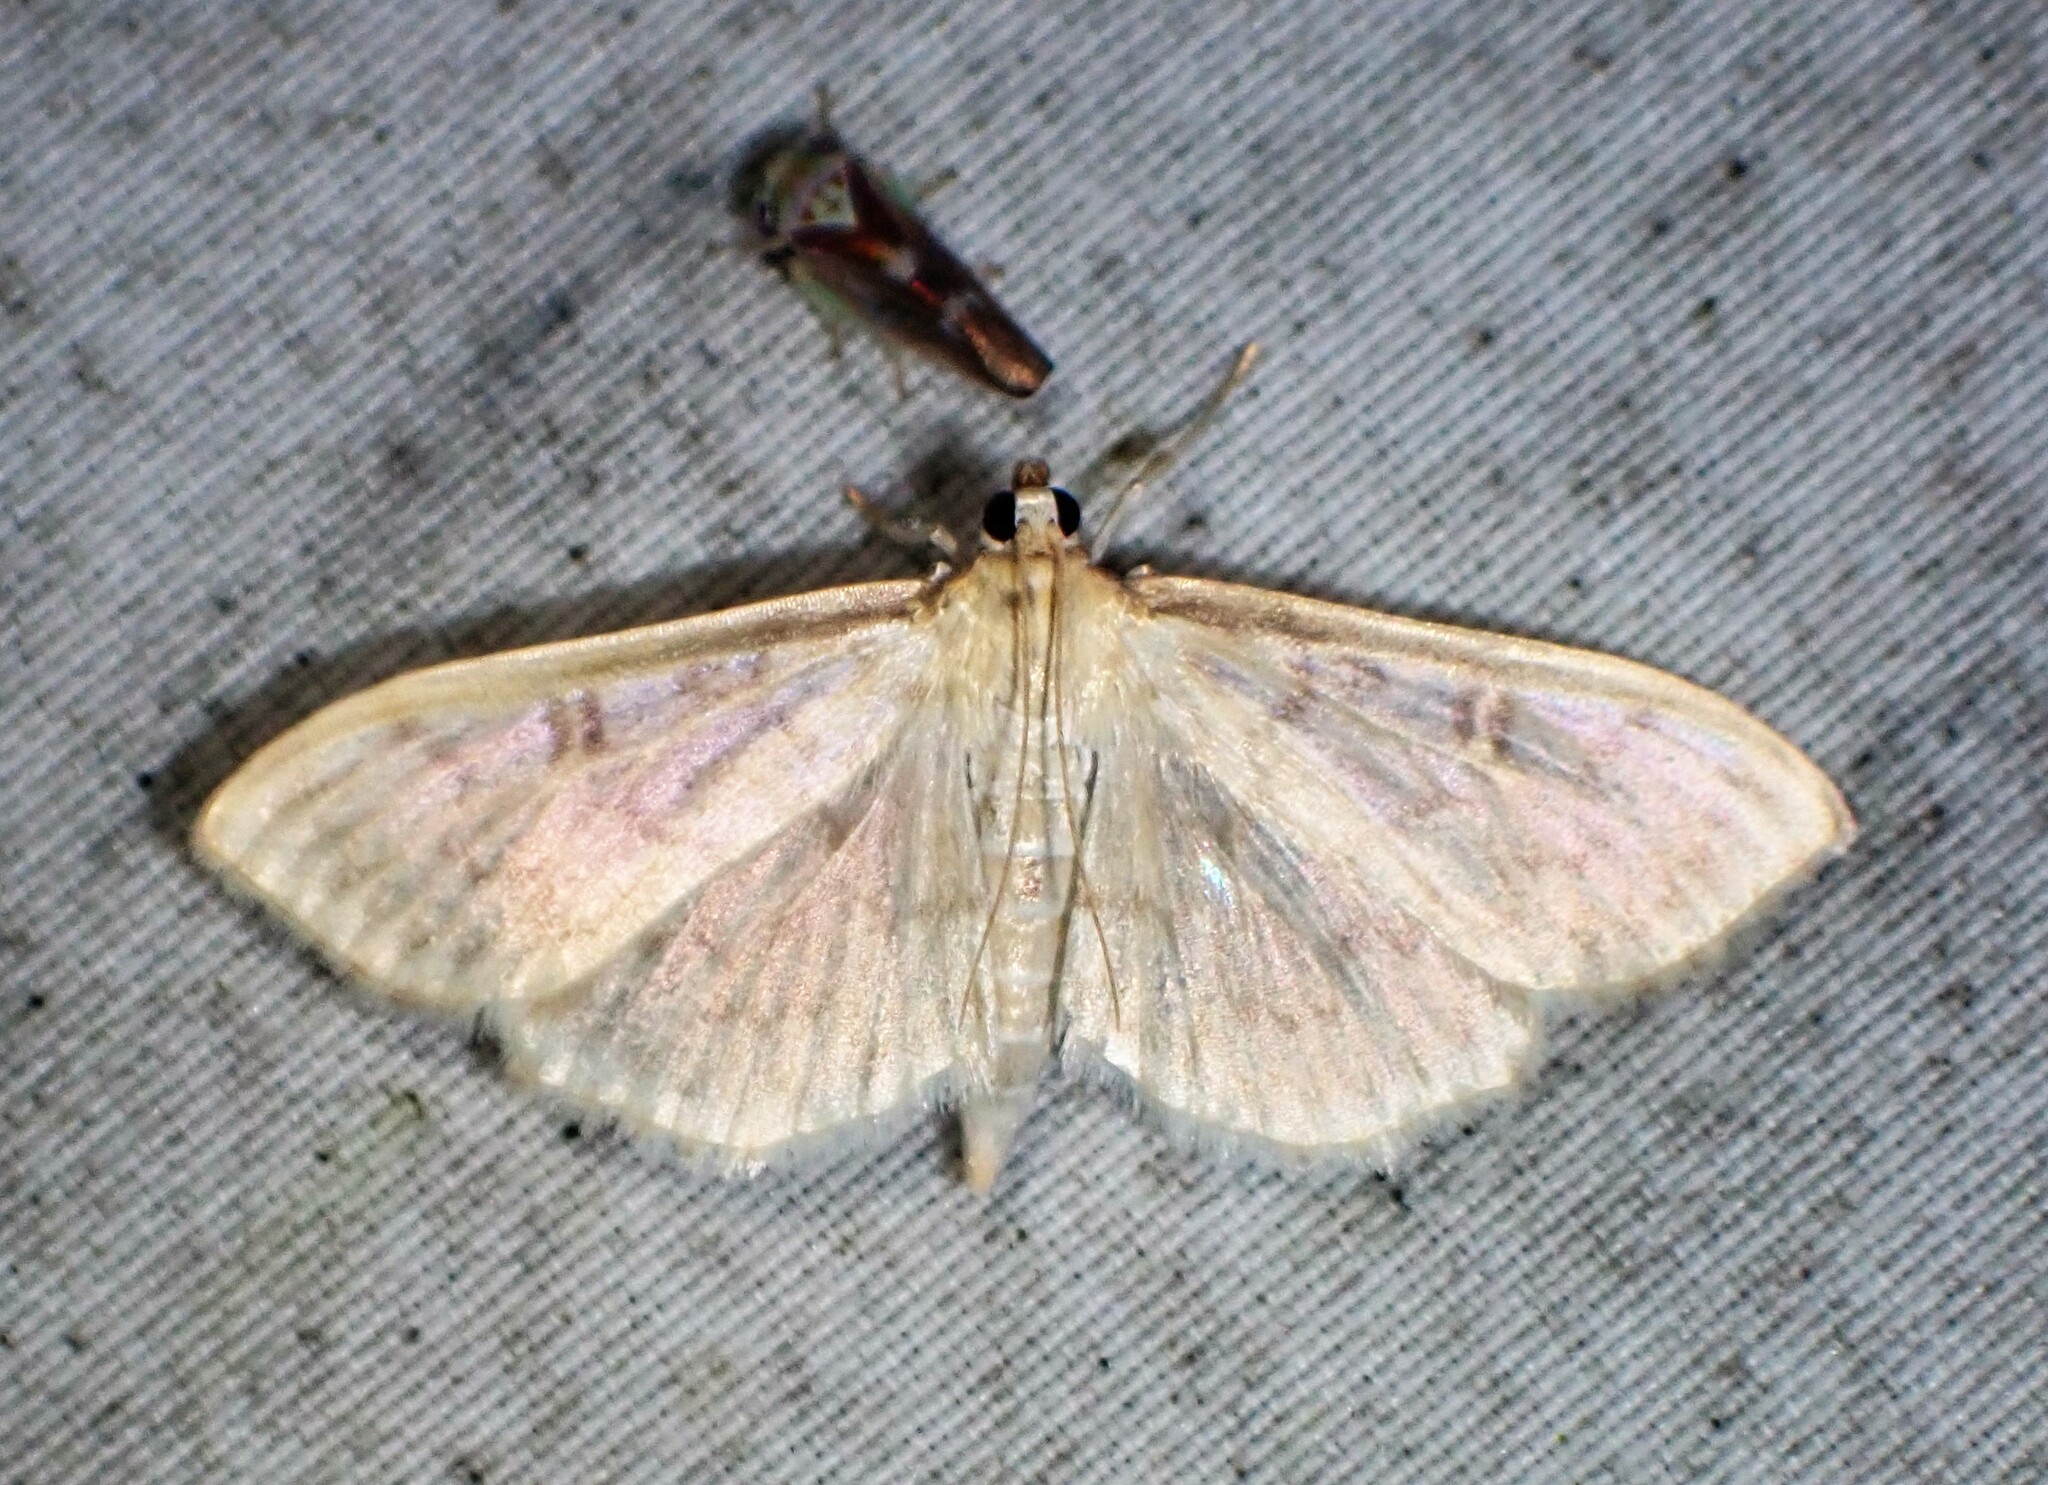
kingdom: Animalia
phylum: Arthropoda
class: Insecta
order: Lepidoptera
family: Crambidae
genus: Herpetogramma
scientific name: Herpetogramma aquilonalis
